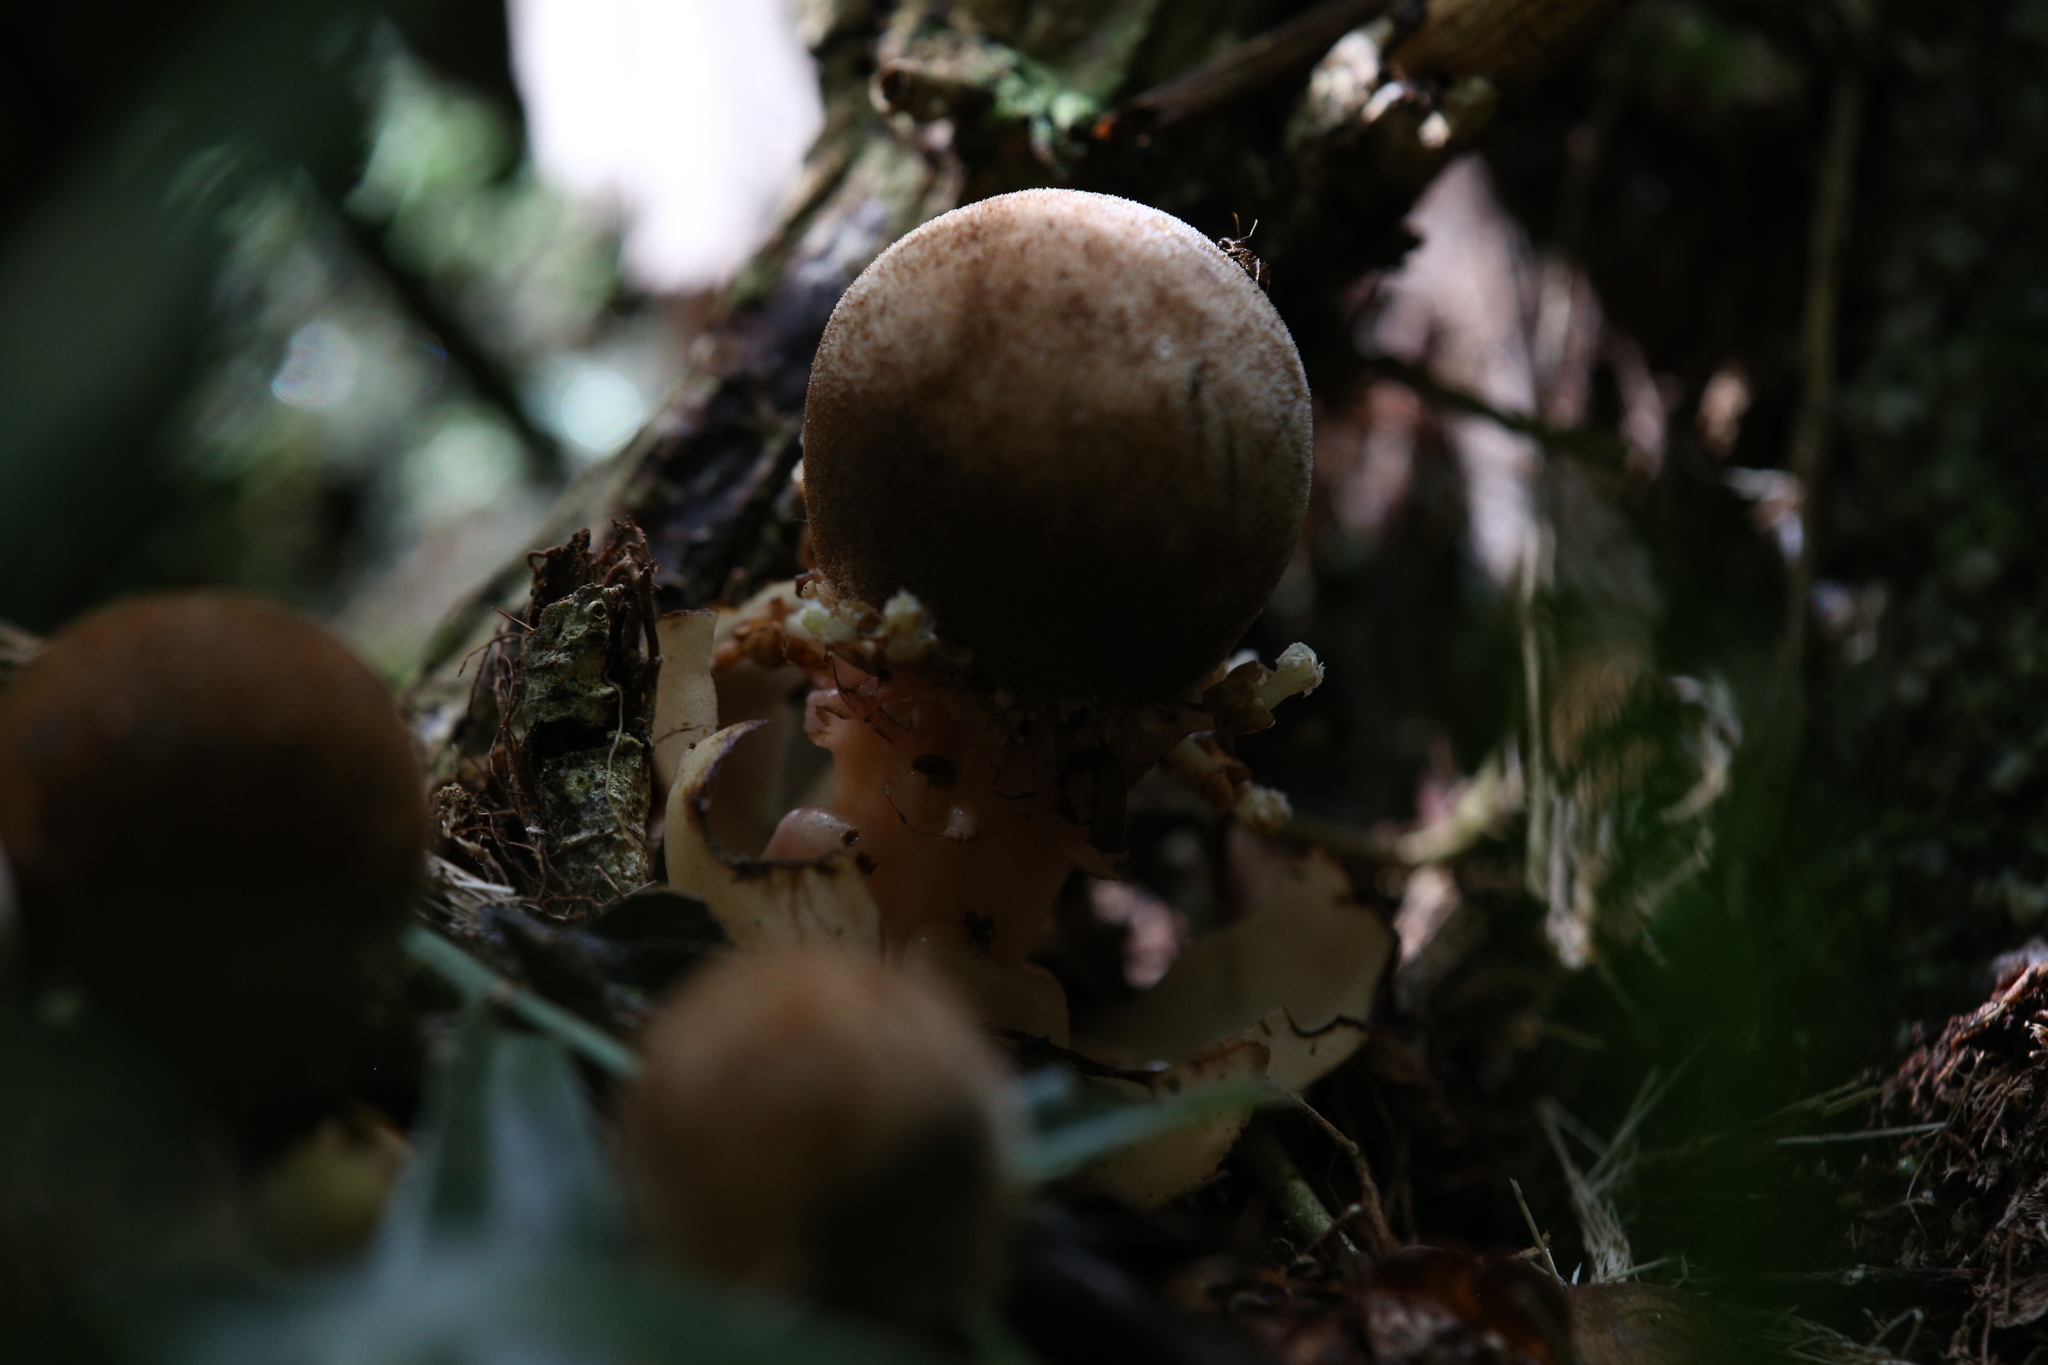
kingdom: Plantae
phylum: Tracheophyta
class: Magnoliopsida
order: Santalales
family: Balanophoraceae
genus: Balanophora
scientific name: Balanophora fungosa
